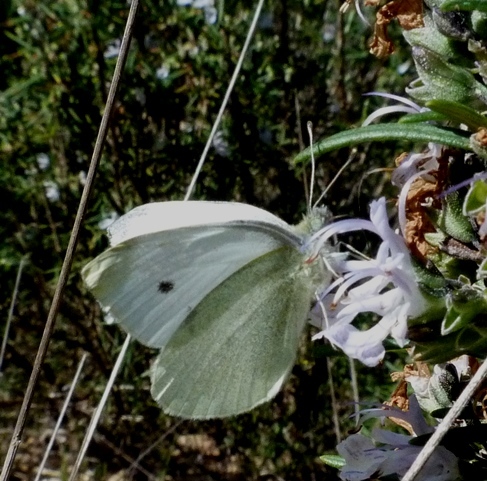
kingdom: Animalia
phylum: Arthropoda
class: Insecta
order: Lepidoptera
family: Pieridae
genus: Pieris
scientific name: Pieris rapae
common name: Small white
